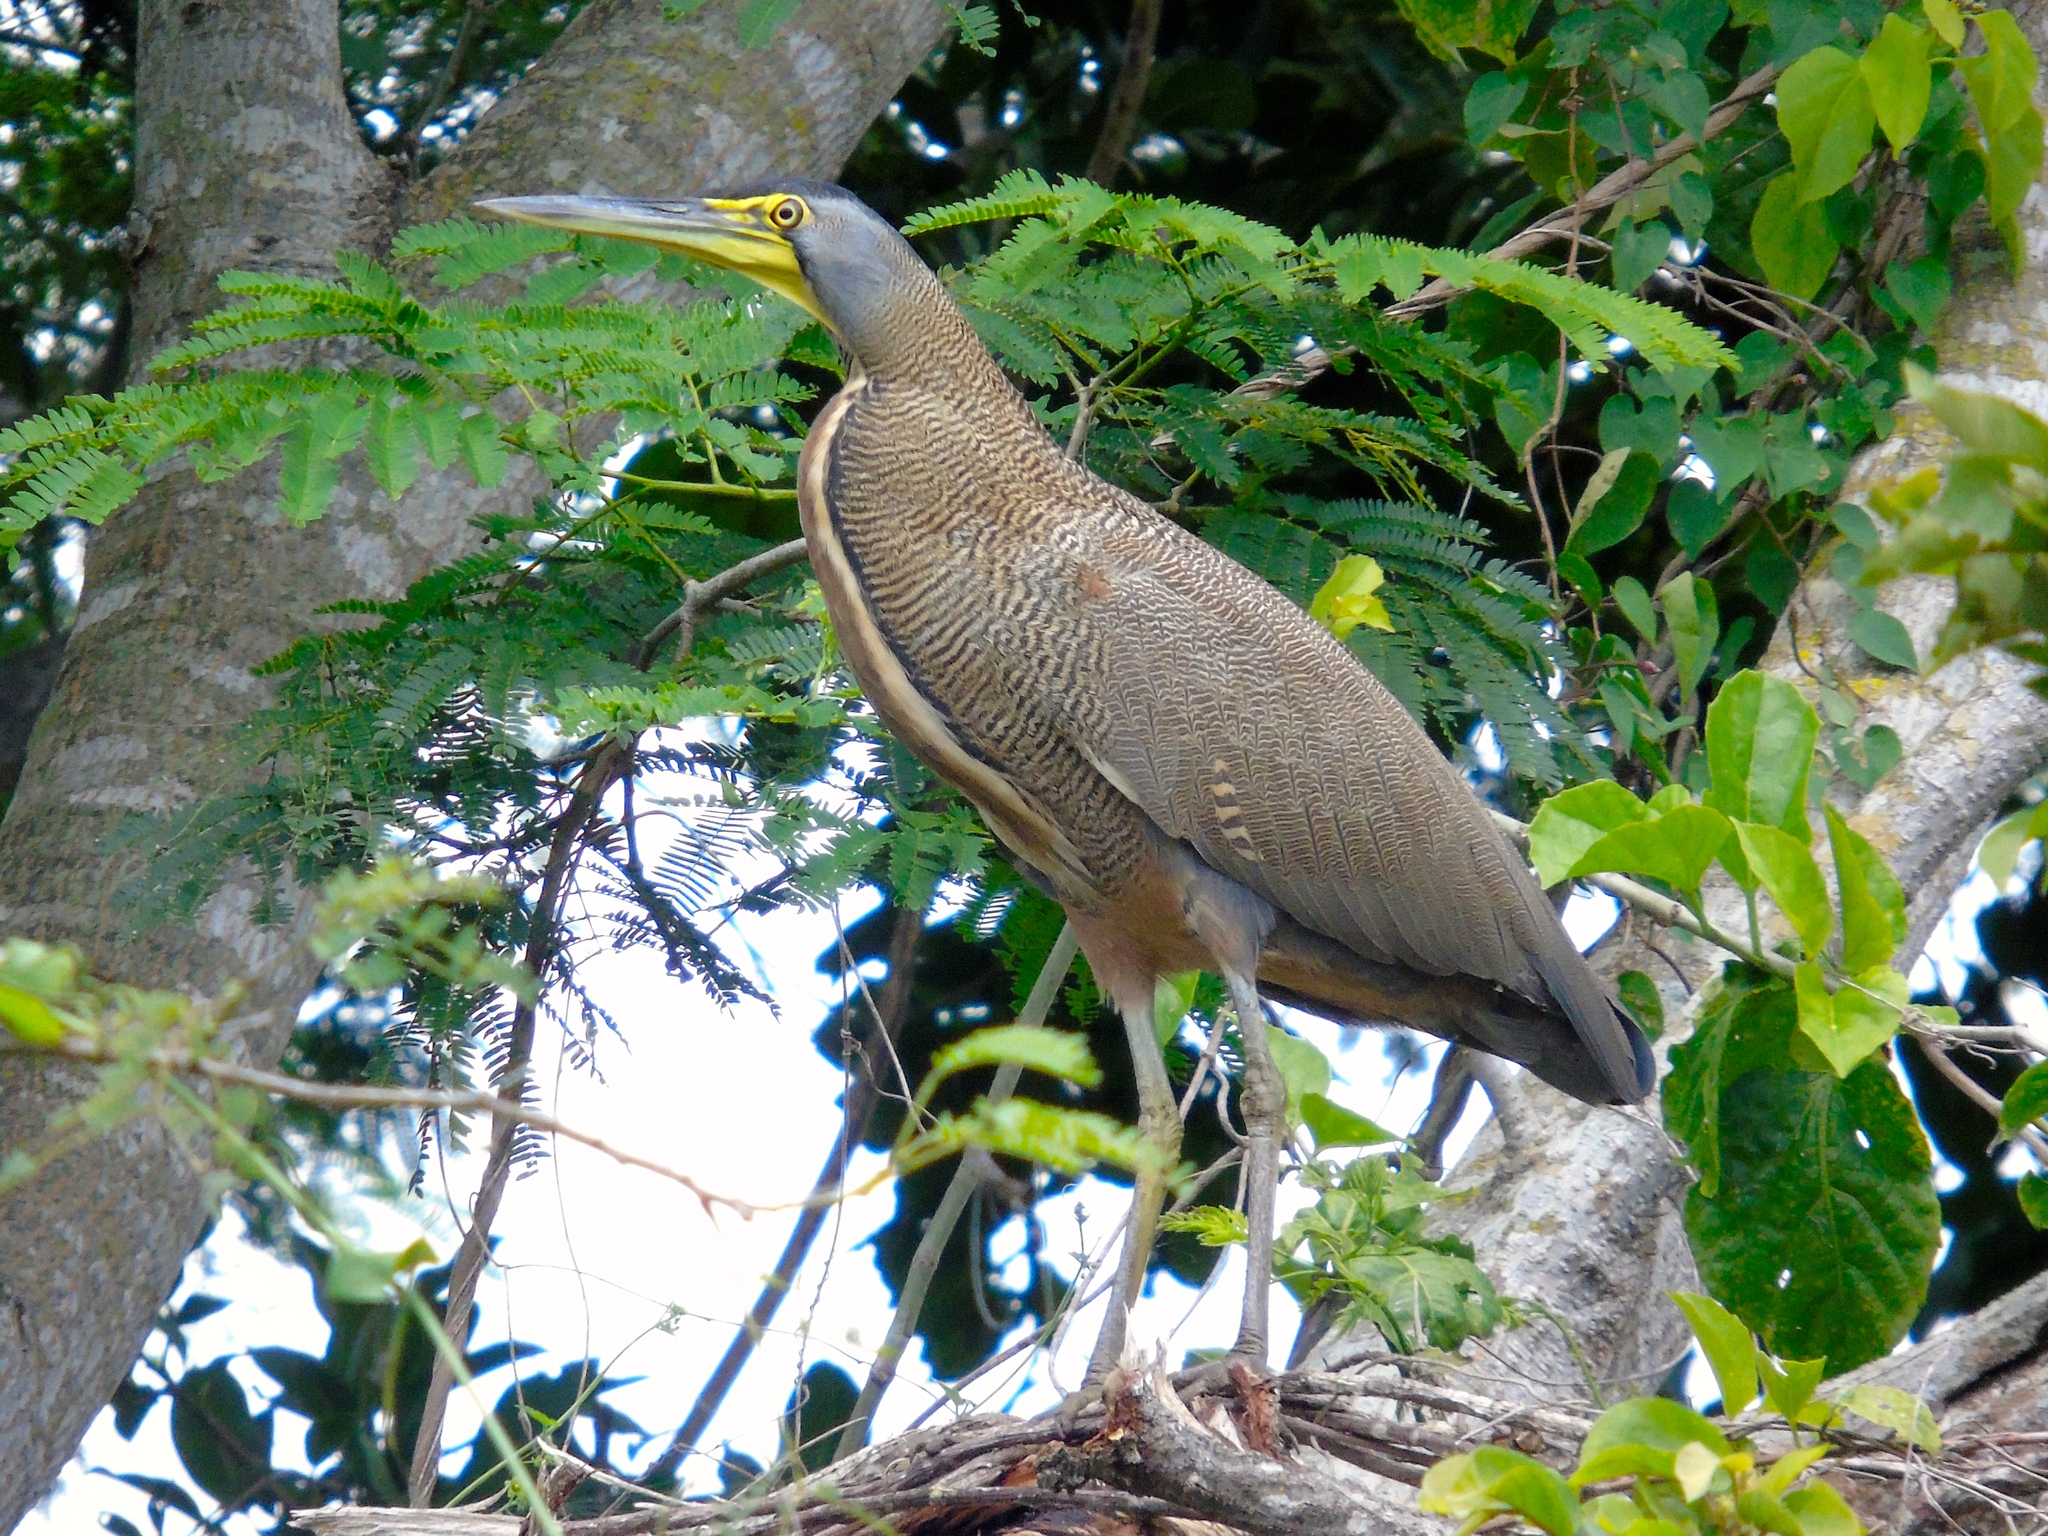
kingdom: Animalia
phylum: Chordata
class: Aves
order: Pelecaniformes
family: Ardeidae
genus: Tigrisoma
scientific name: Tigrisoma mexicanum
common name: Bare-throated tiger-heron
